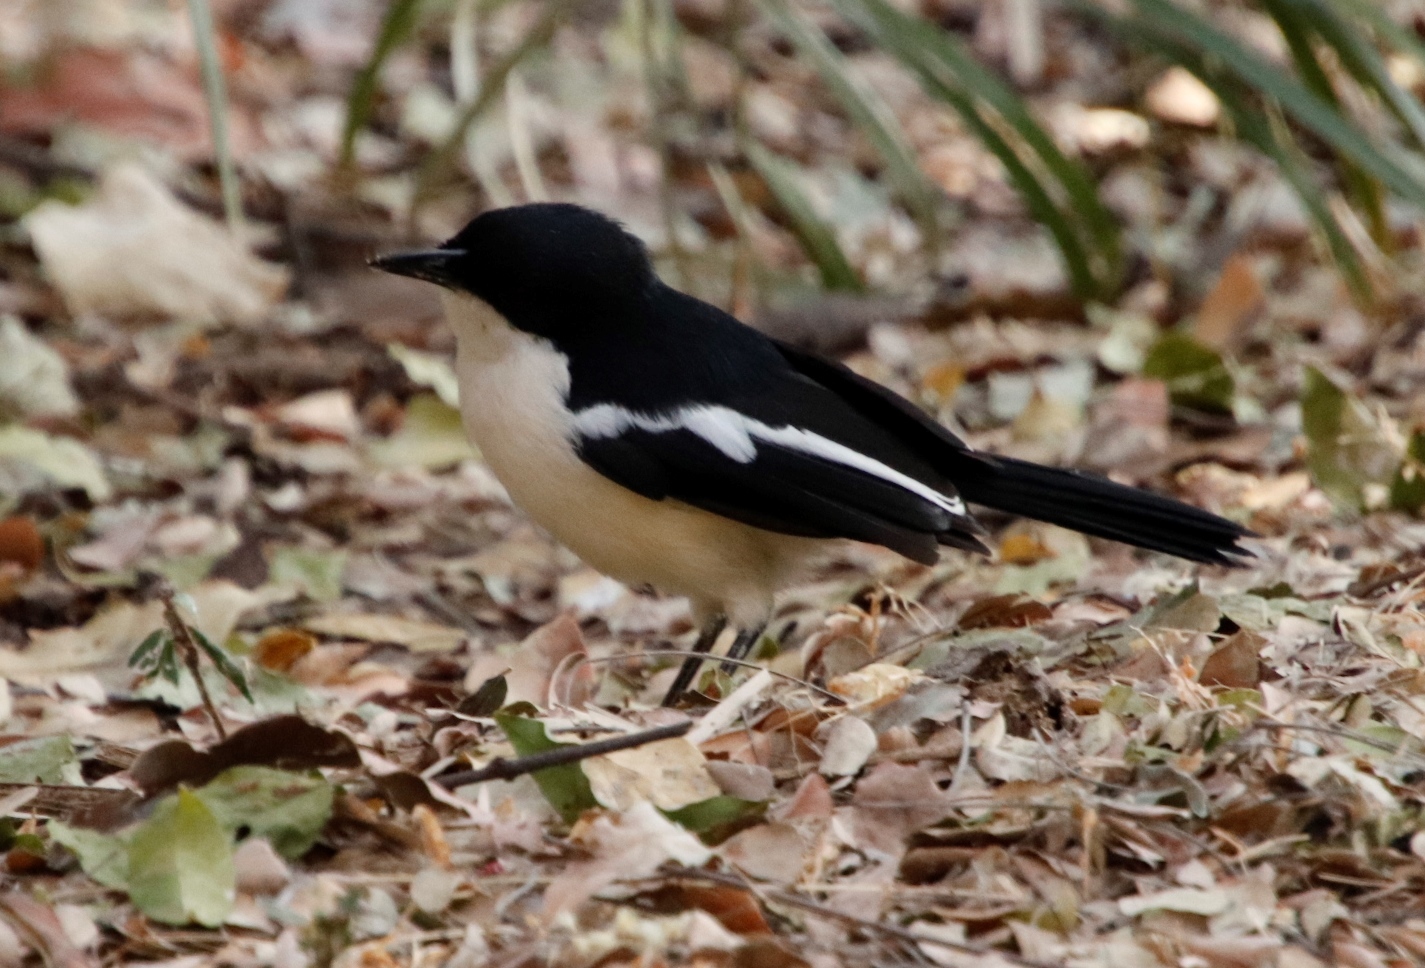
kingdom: Animalia
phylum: Chordata
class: Aves
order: Passeriformes
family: Malaconotidae
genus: Laniarius
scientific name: Laniarius bicolor
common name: Swamp boubou
